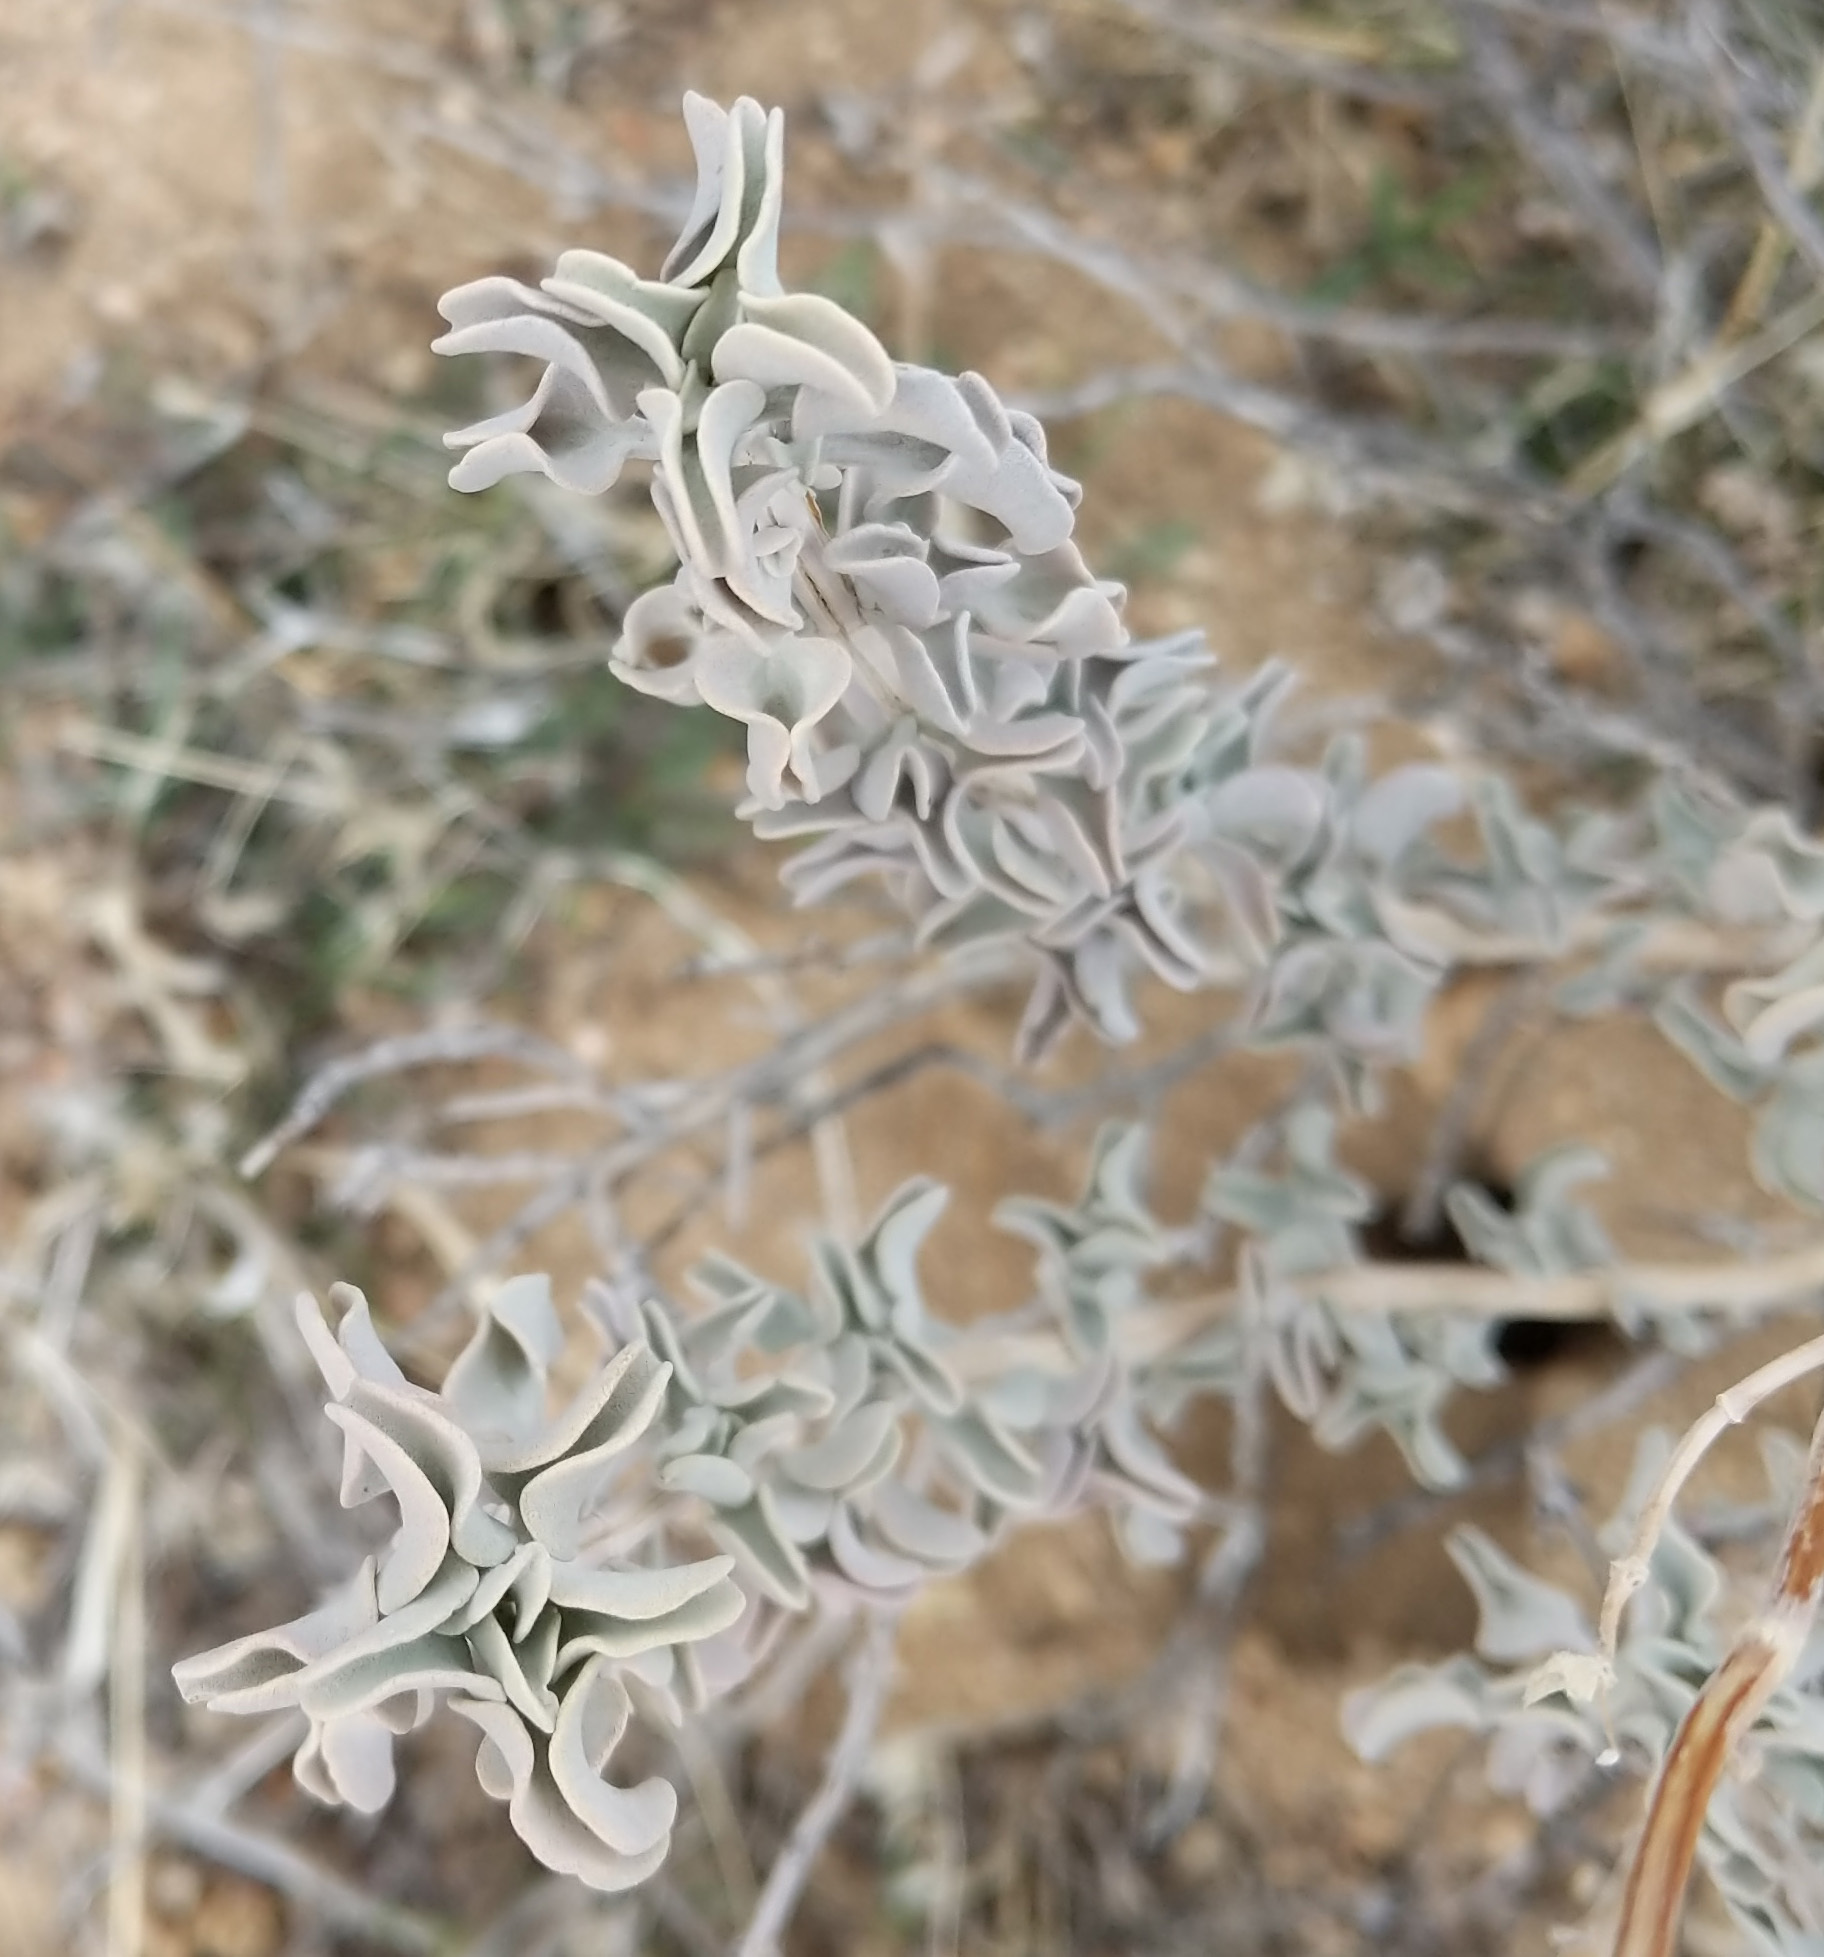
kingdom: Plantae
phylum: Tracheophyta
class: Magnoliopsida
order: Lamiales
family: Lamiaceae
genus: Salvia
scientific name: Salvia dorrii
